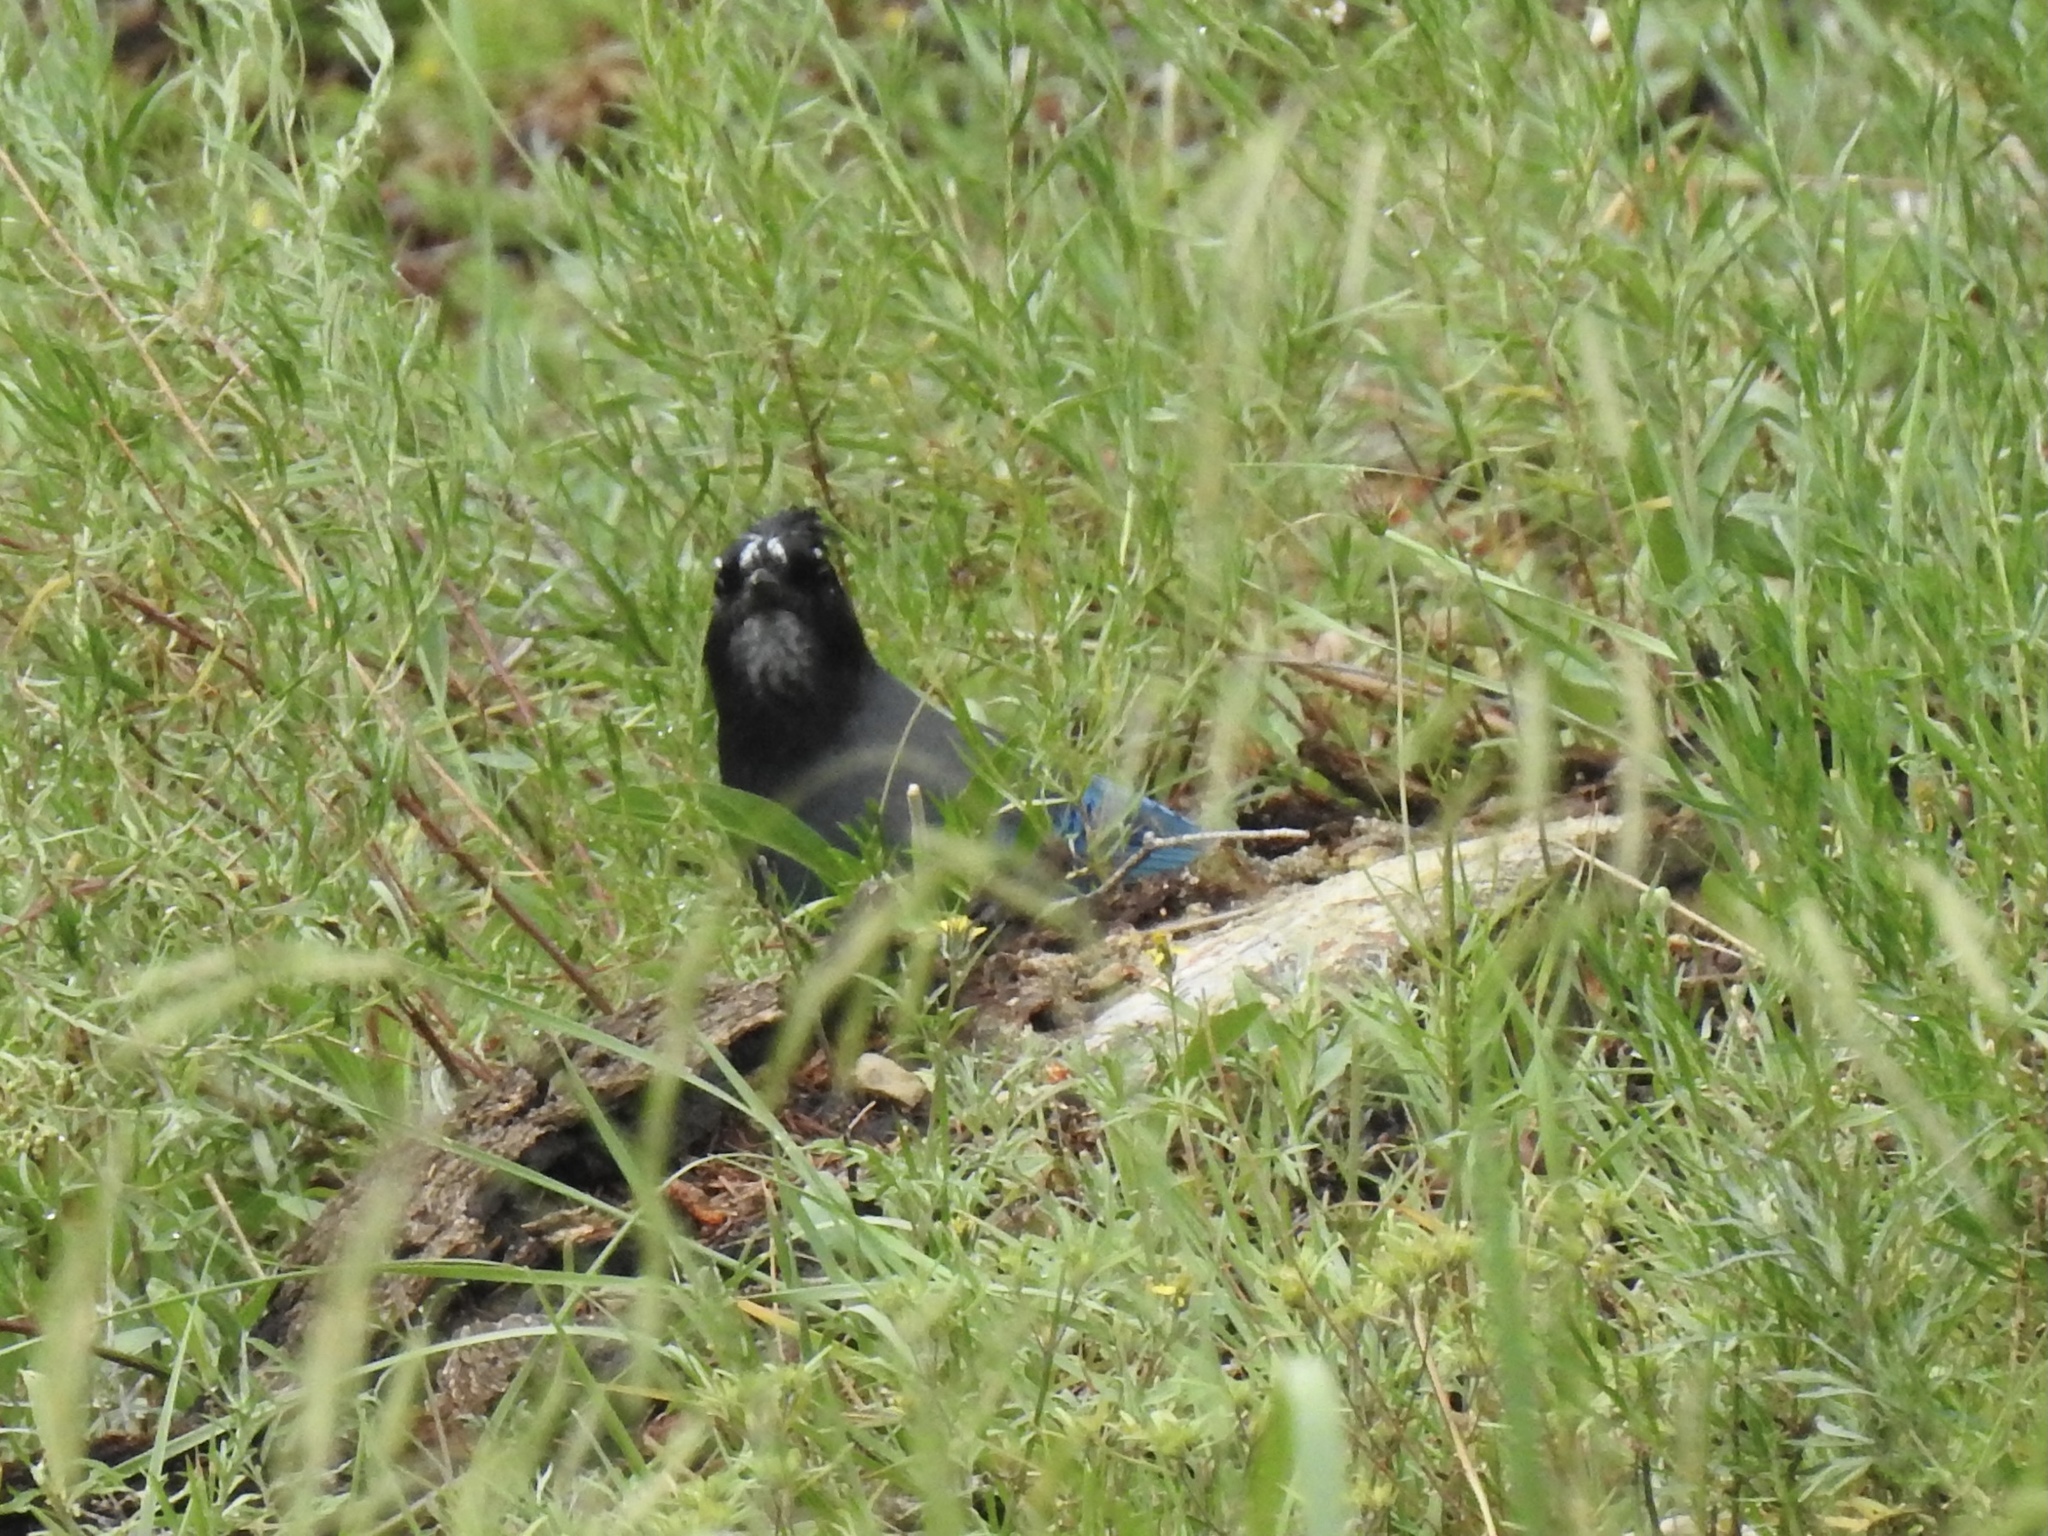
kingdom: Animalia
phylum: Chordata
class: Aves
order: Passeriformes
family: Corvidae
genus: Cyanocitta
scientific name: Cyanocitta stelleri
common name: Steller's jay
